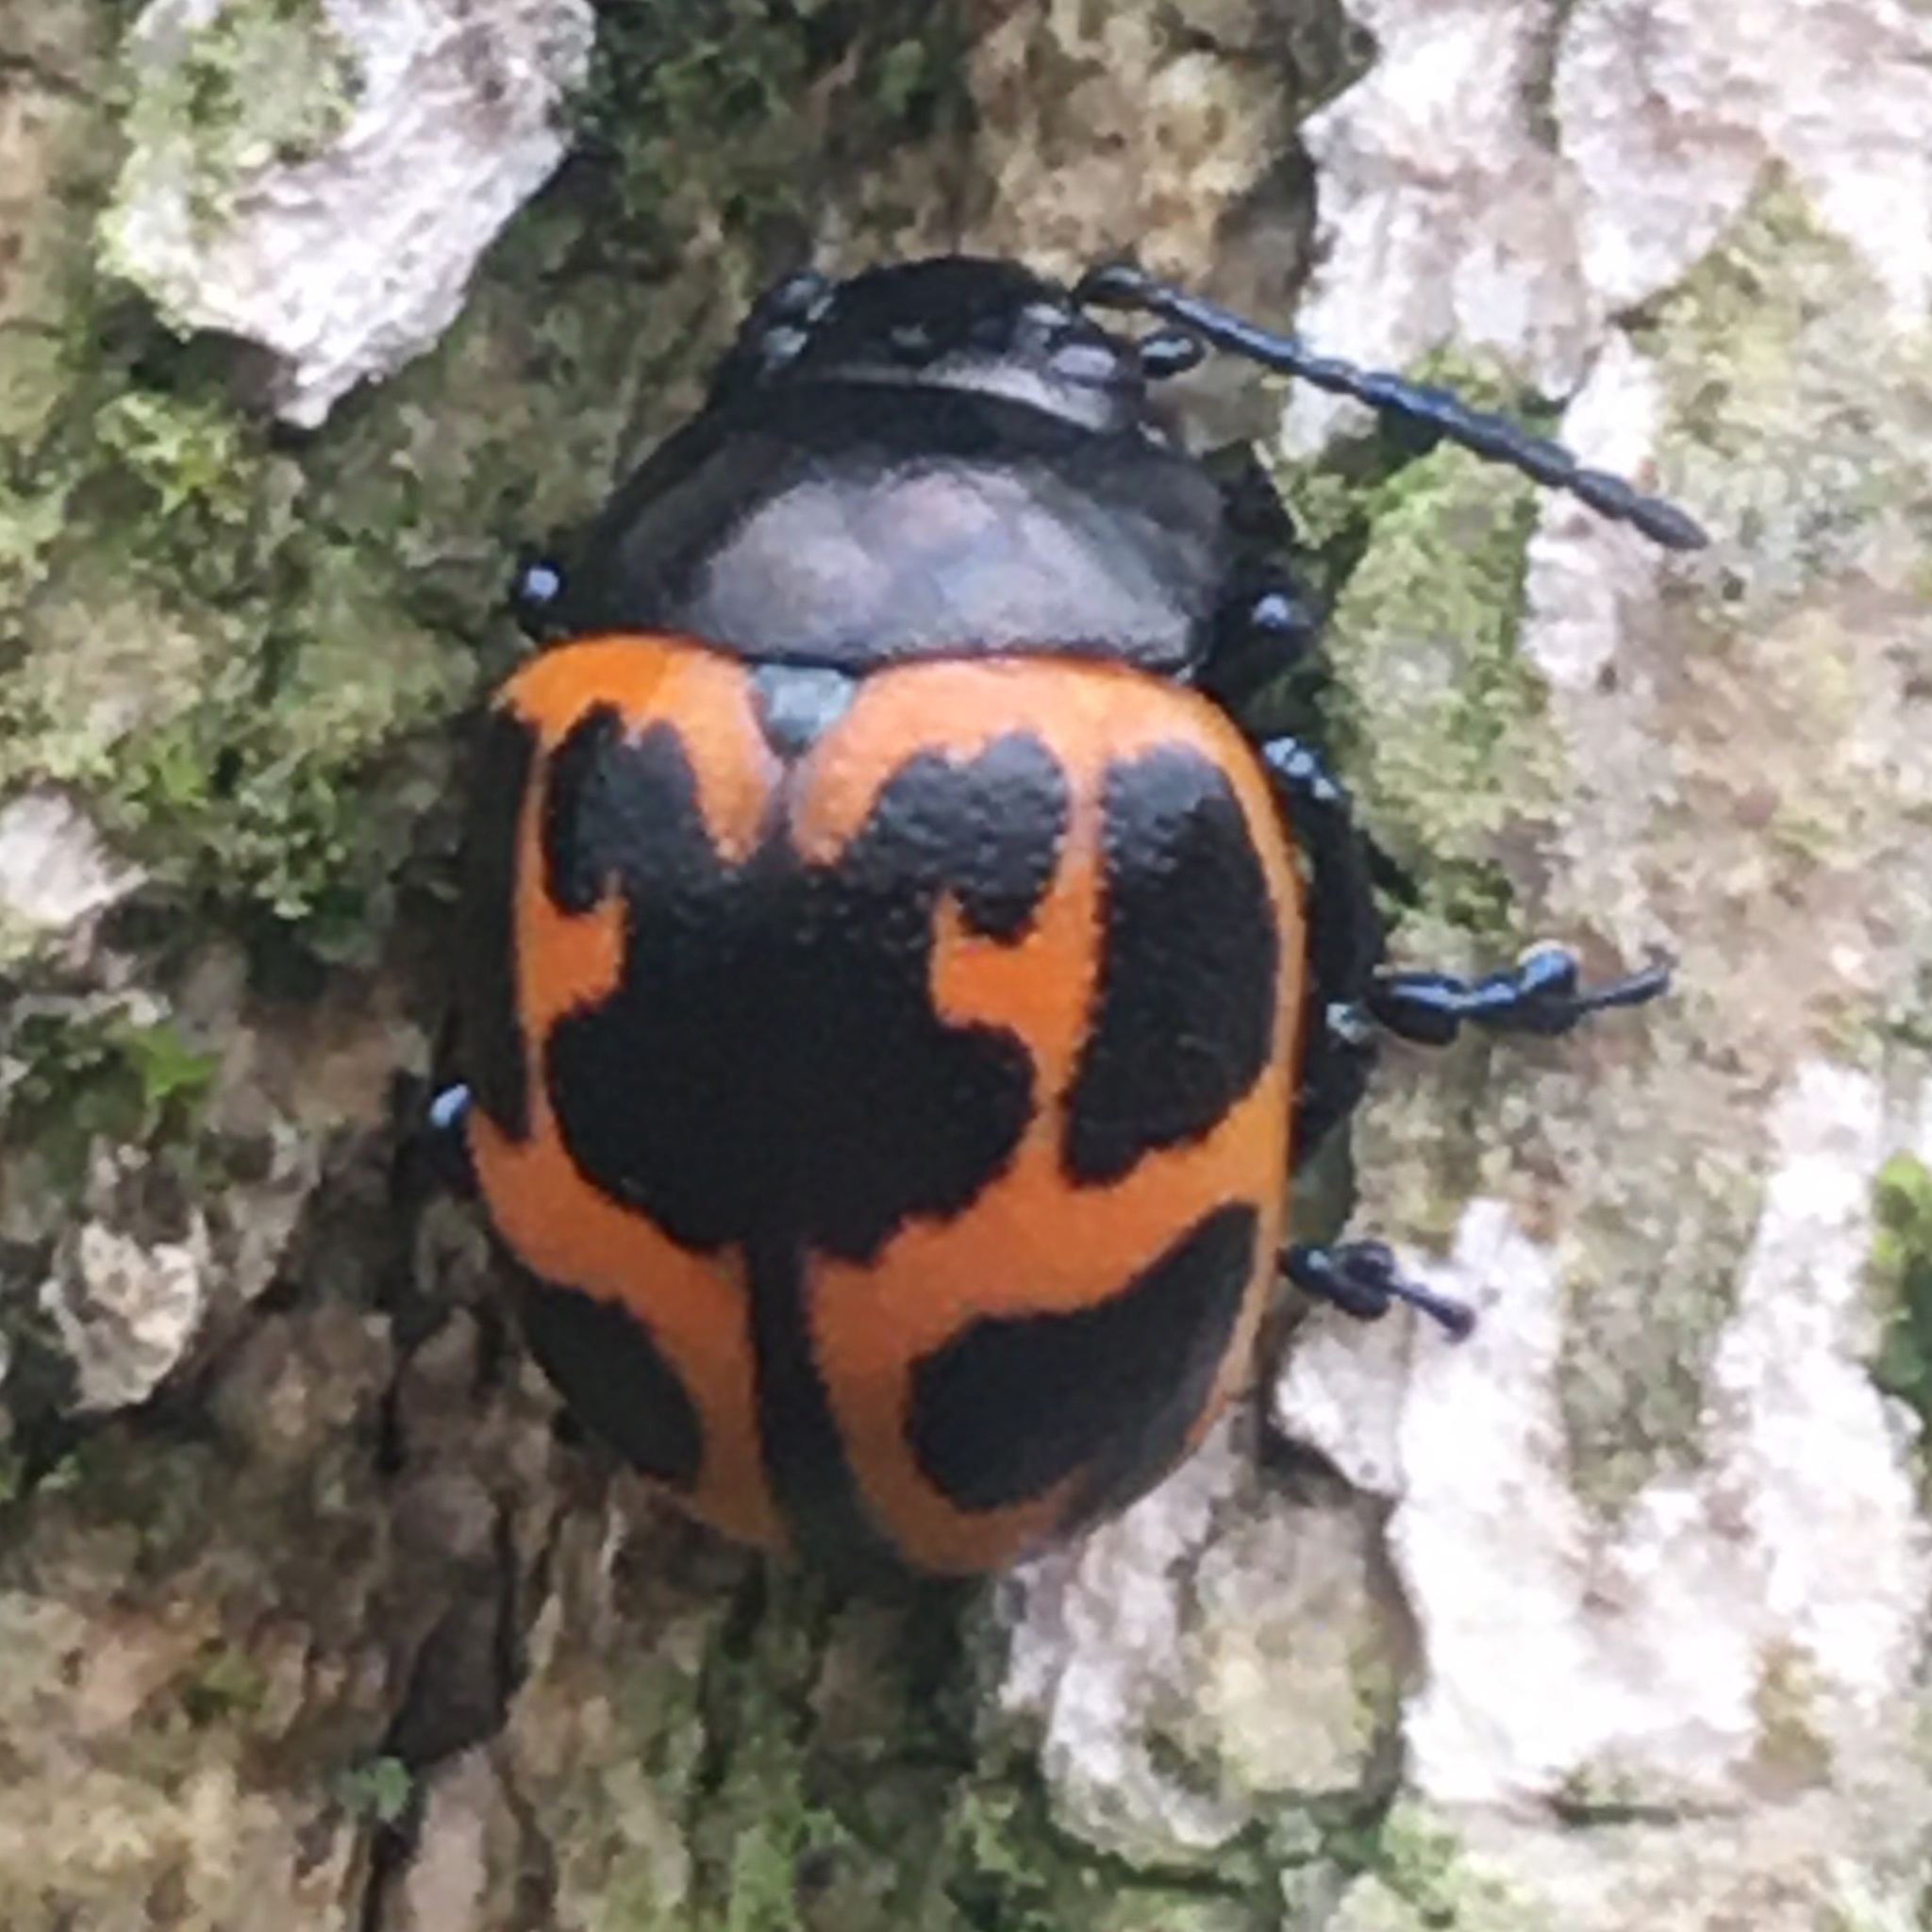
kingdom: Animalia
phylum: Arthropoda
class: Insecta
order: Coleoptera
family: Chrysomelidae
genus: Labidomera
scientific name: Labidomera clivicollis
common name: Swamp milkweed leaf beetle
